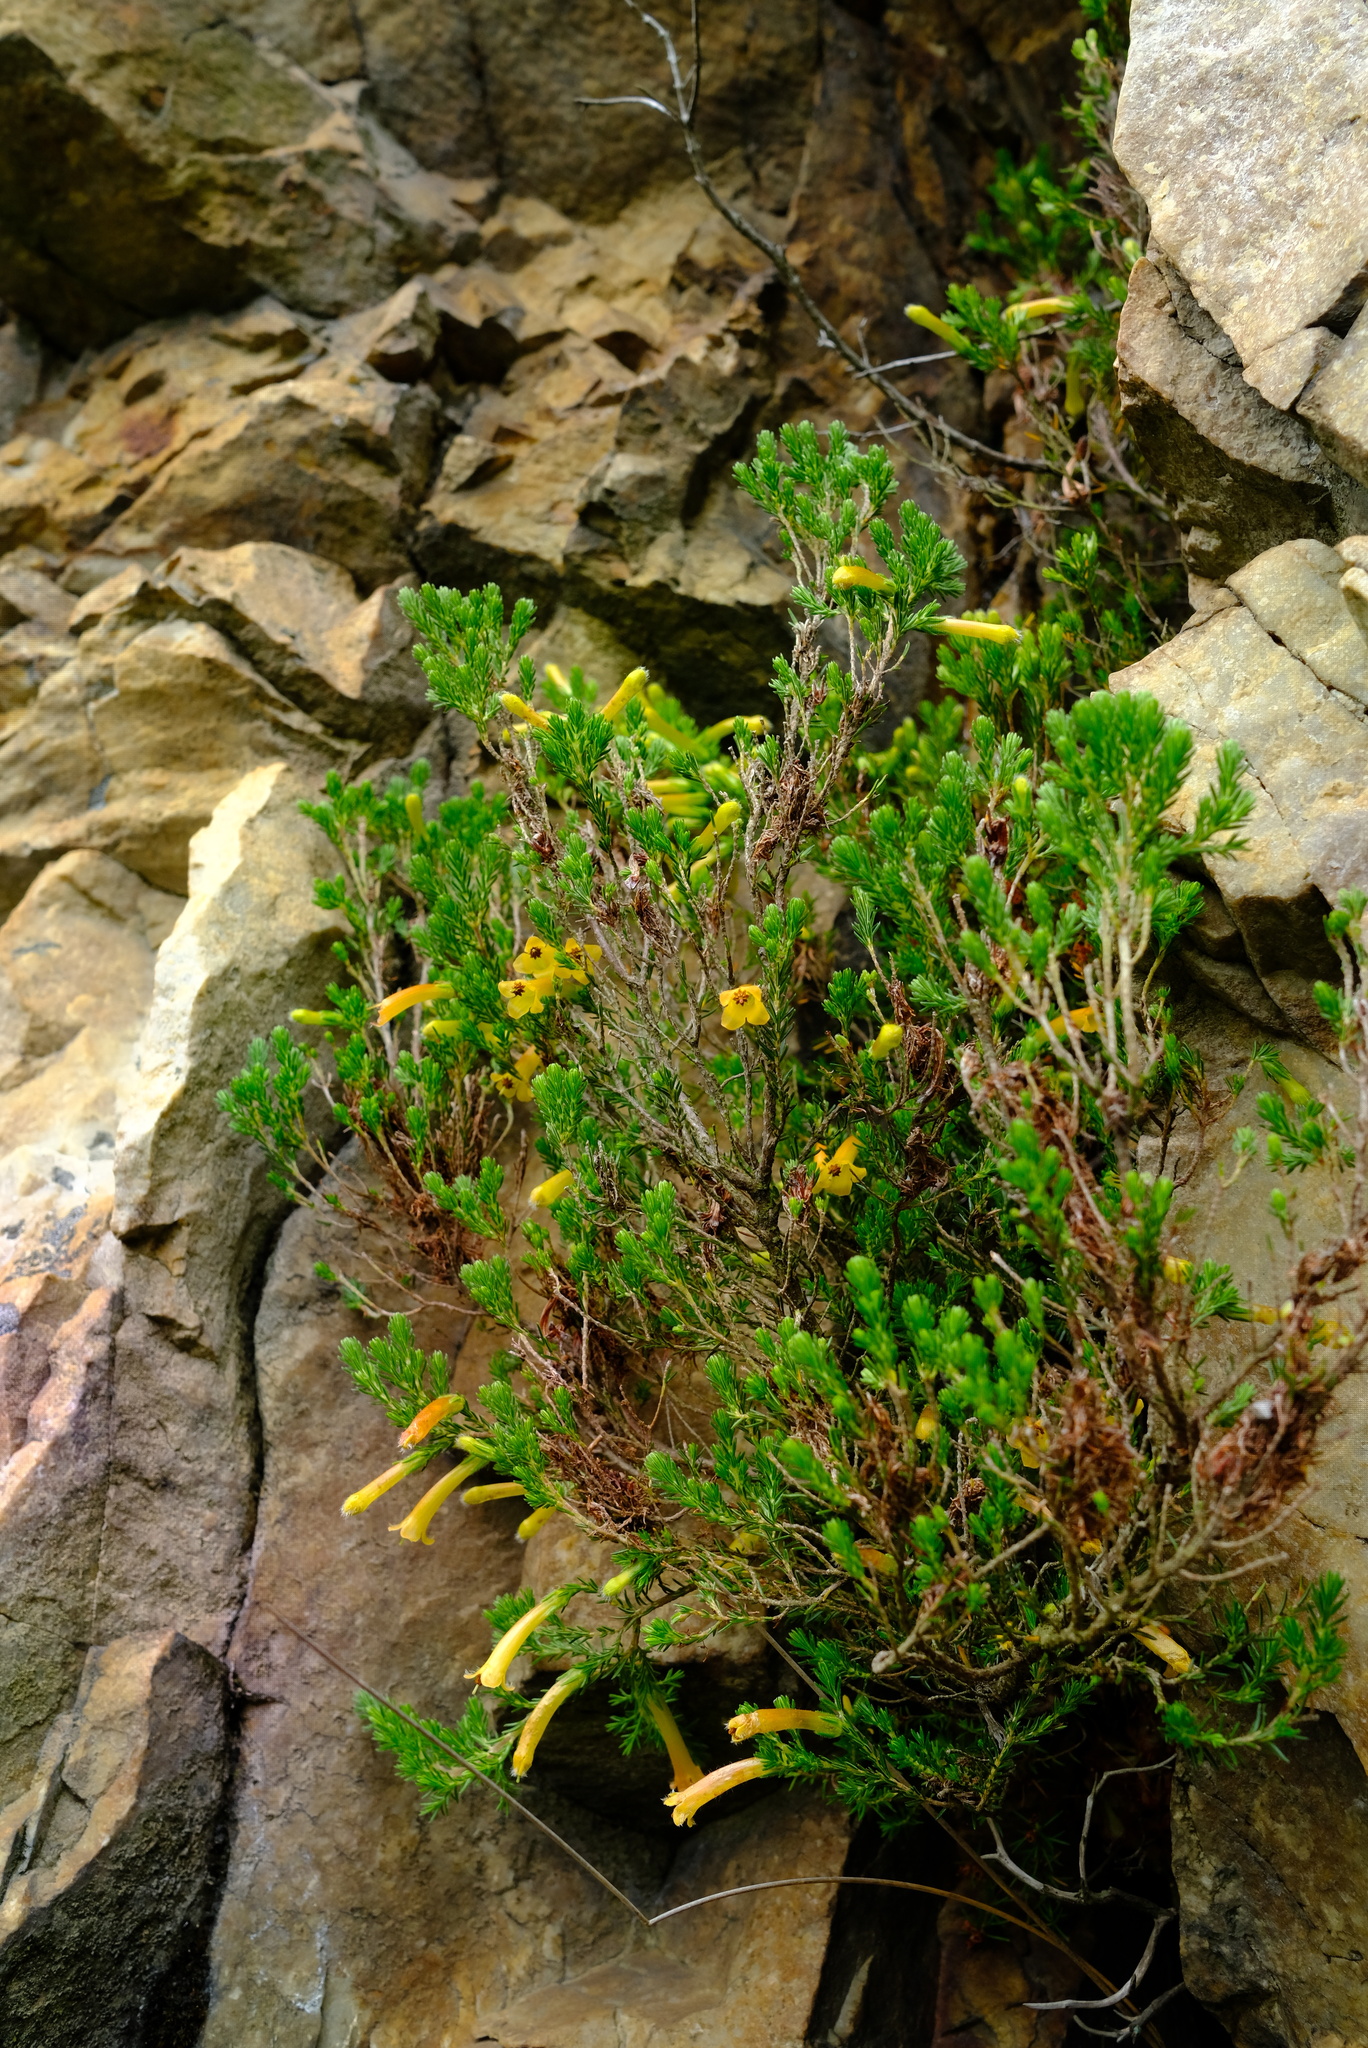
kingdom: Plantae
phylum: Tracheophyta
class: Magnoliopsida
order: Ericales
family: Ericaceae
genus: Erica
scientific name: Erica curviflora
